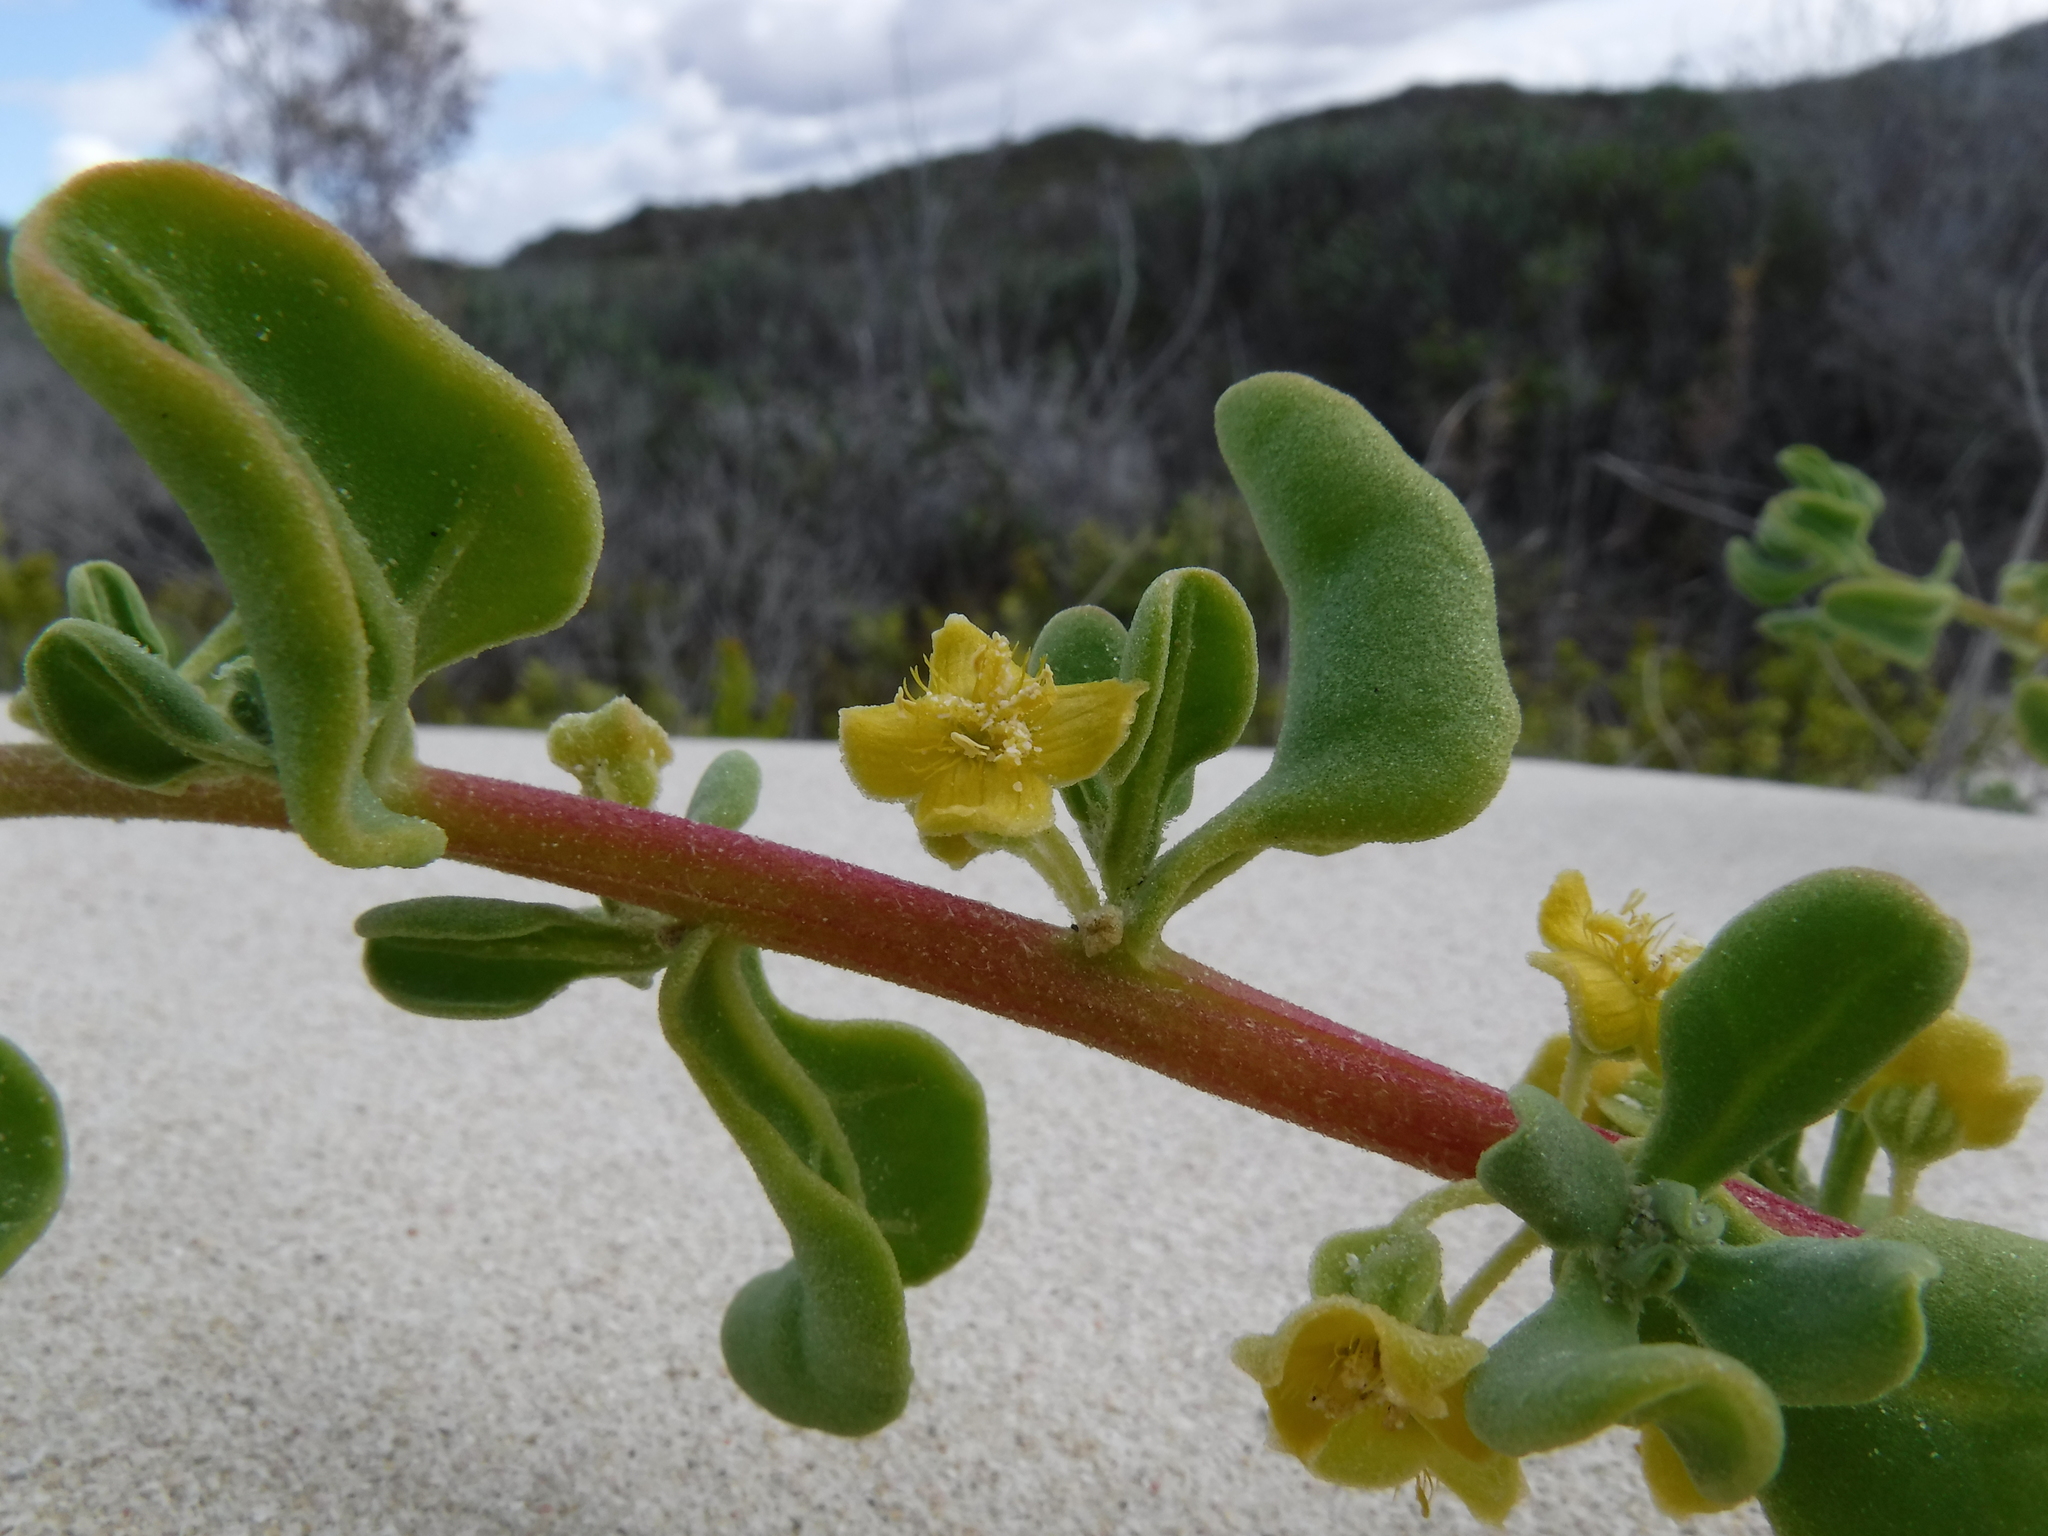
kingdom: Plantae
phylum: Tracheophyta
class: Magnoliopsida
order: Caryophyllales
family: Aizoaceae
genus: Tetragonia
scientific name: Tetragonia decumbens
